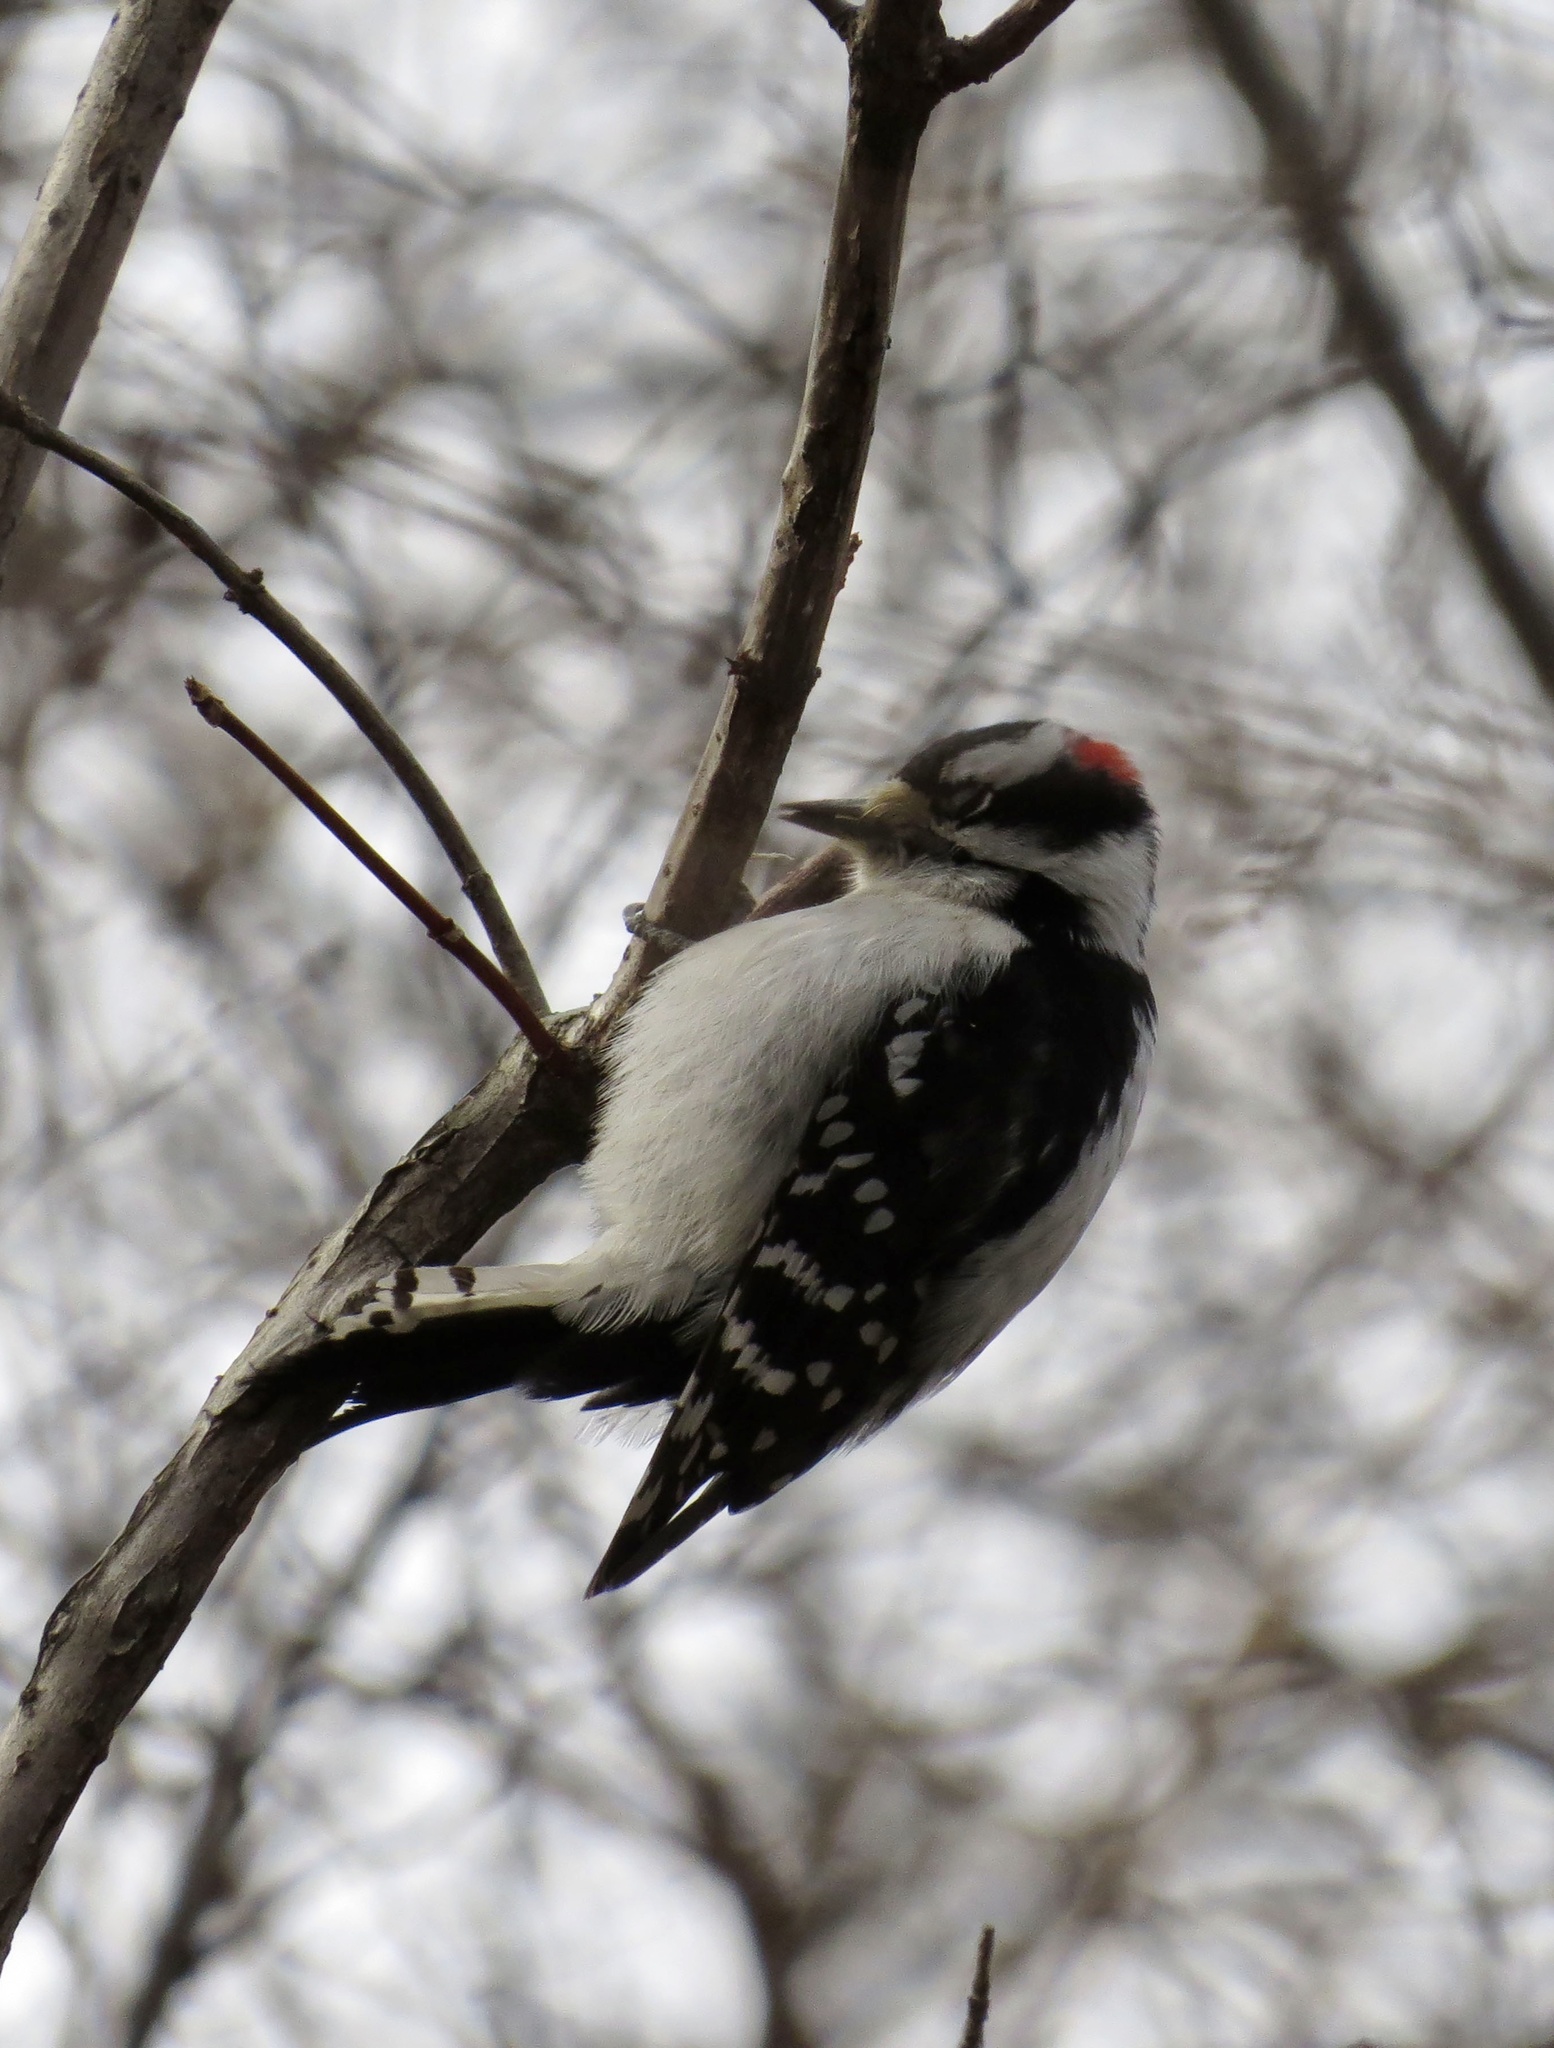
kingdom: Animalia
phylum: Chordata
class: Aves
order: Piciformes
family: Picidae
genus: Dryobates
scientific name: Dryobates pubescens
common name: Downy woodpecker
